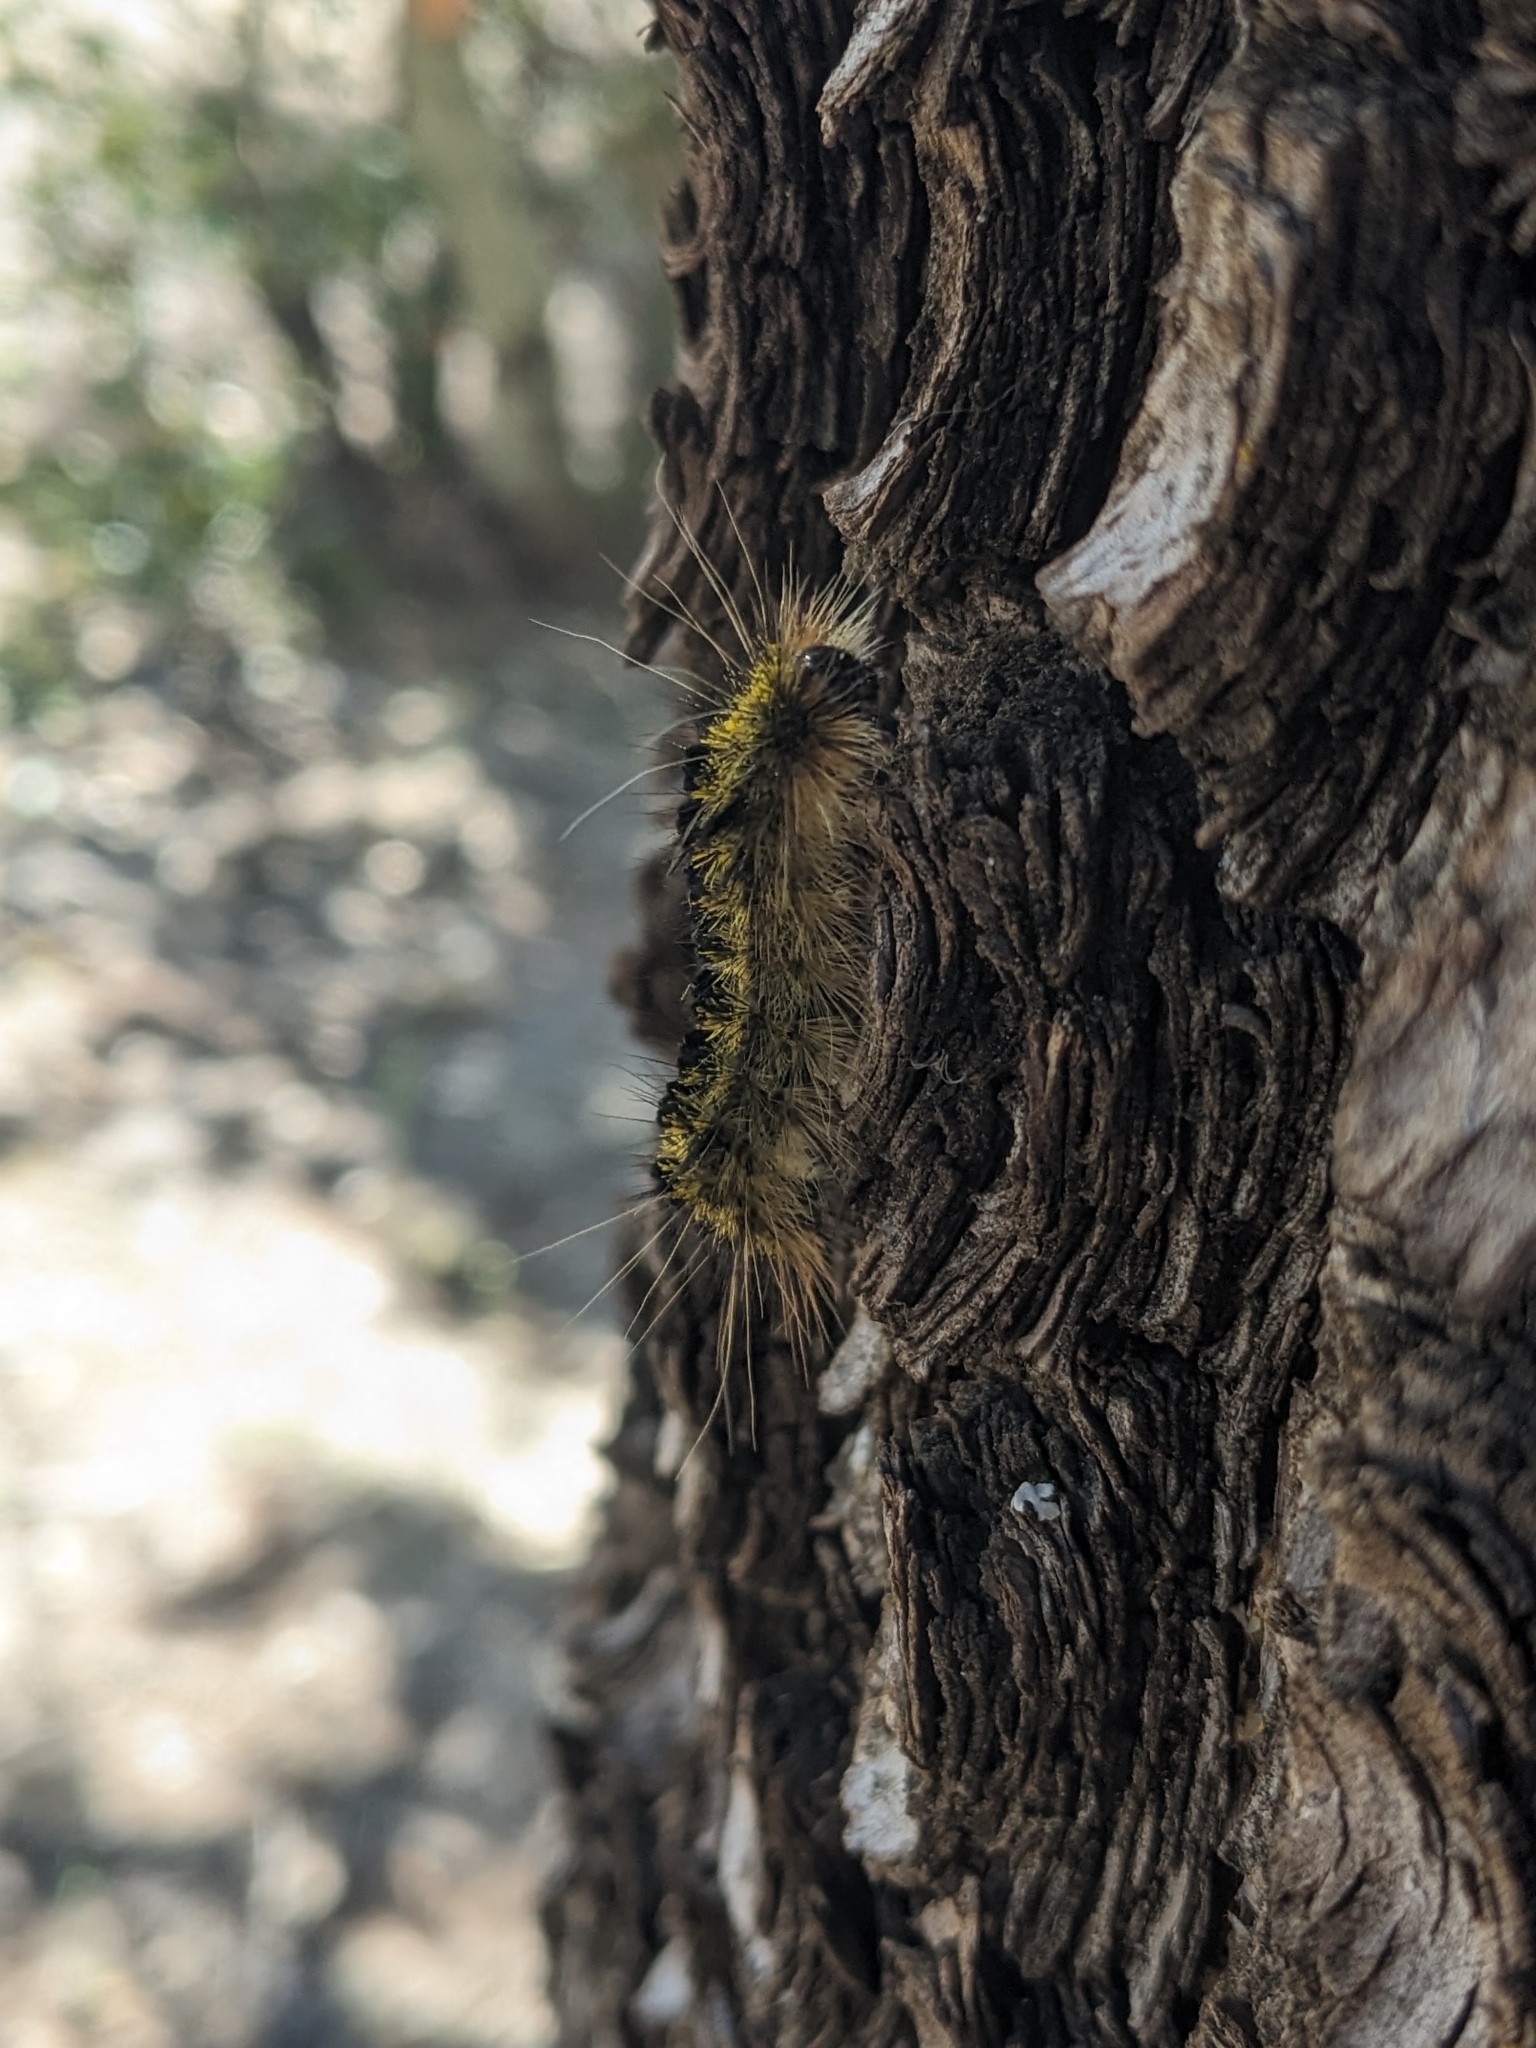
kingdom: Animalia
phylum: Arthropoda
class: Insecta
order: Lepidoptera
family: Erebidae
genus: Lophocampa
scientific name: Lophocampa argentata
